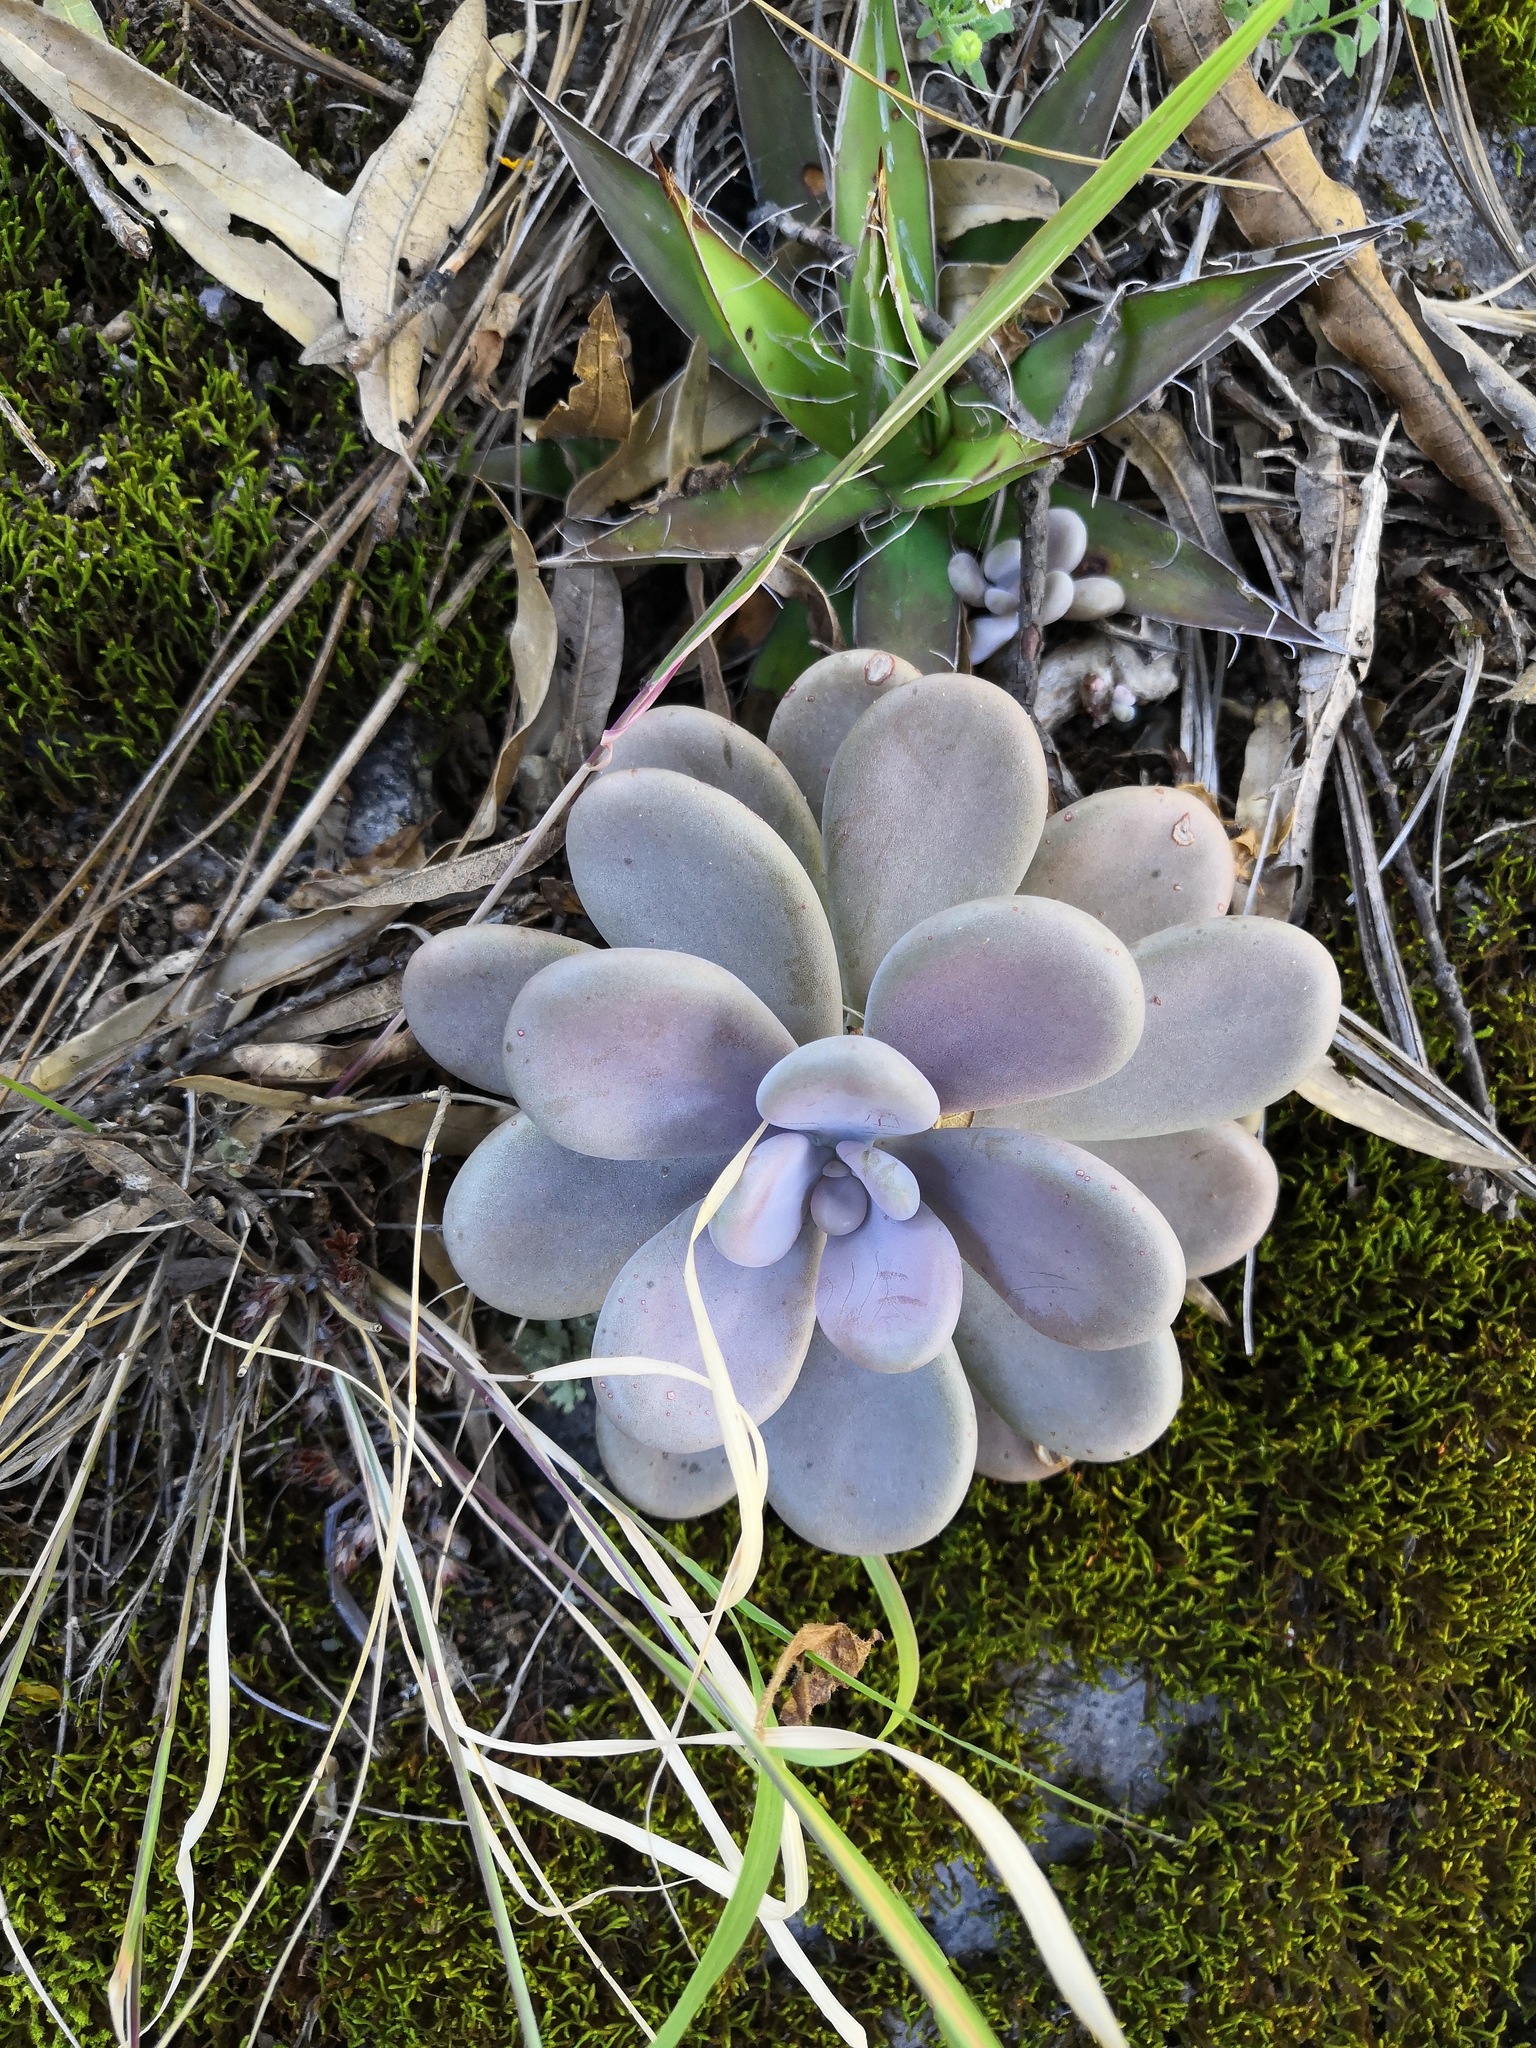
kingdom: Plantae
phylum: Tracheophyta
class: Magnoliopsida
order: Saxifragales
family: Crassulaceae
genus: Graptopetalum
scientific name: Graptopetalum amethystinum
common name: Jewel-leaf-plant
